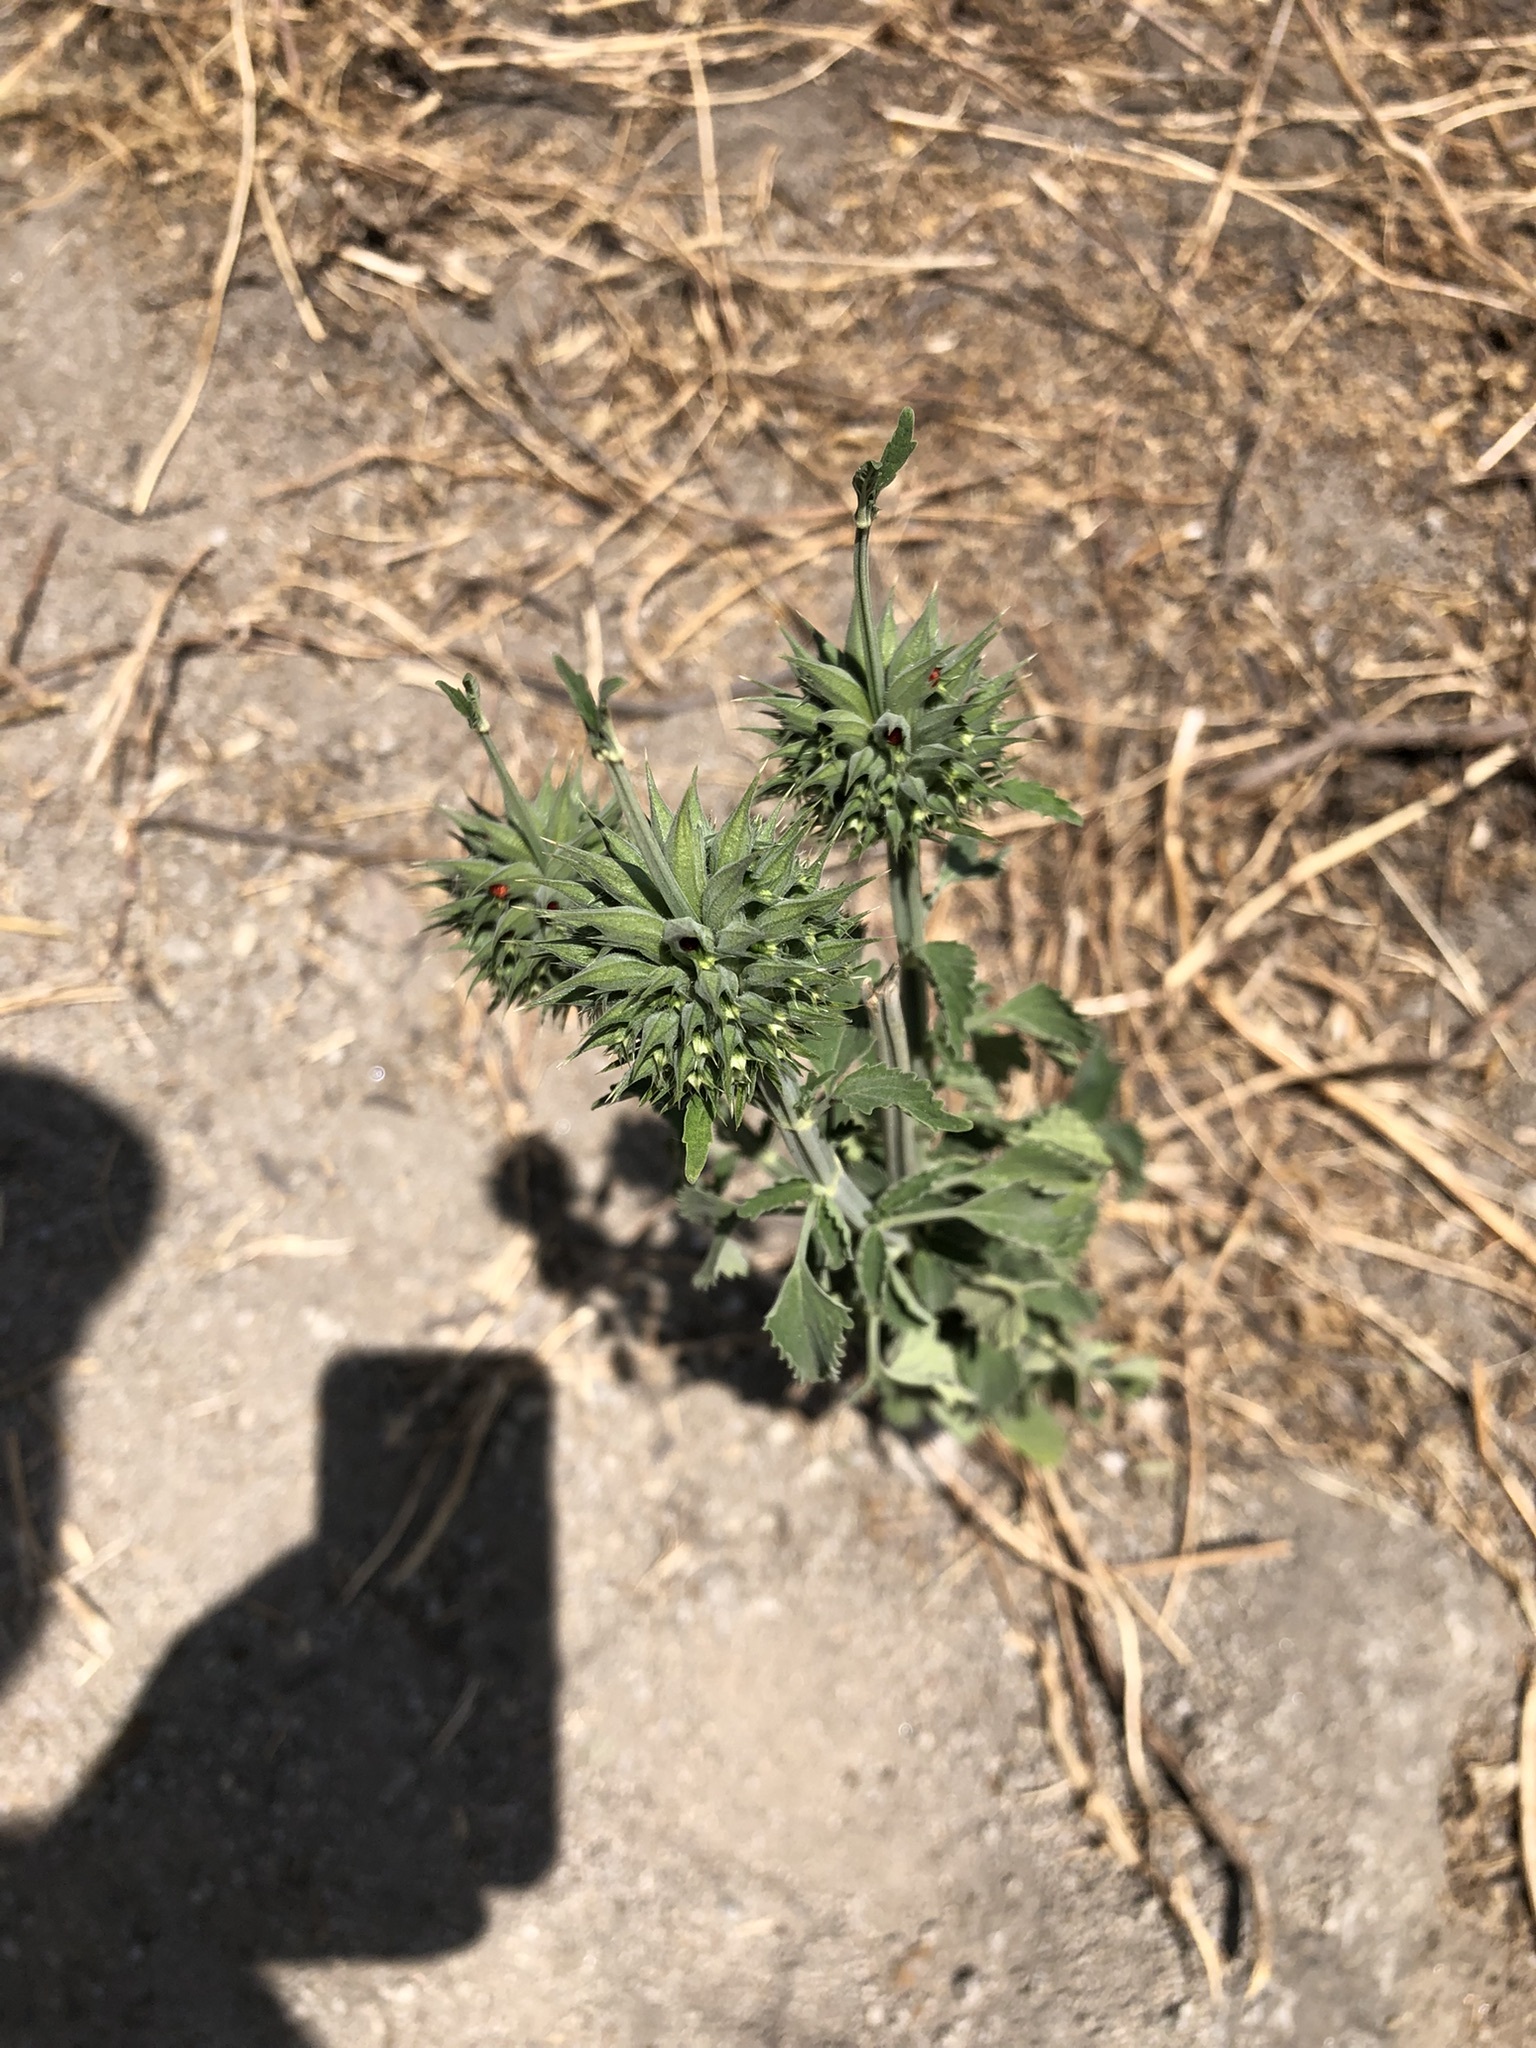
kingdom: Plantae
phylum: Tracheophyta
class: Magnoliopsida
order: Lamiales
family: Lamiaceae
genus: Leonotis
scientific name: Leonotis nepetifolia
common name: Christmas candlestick
